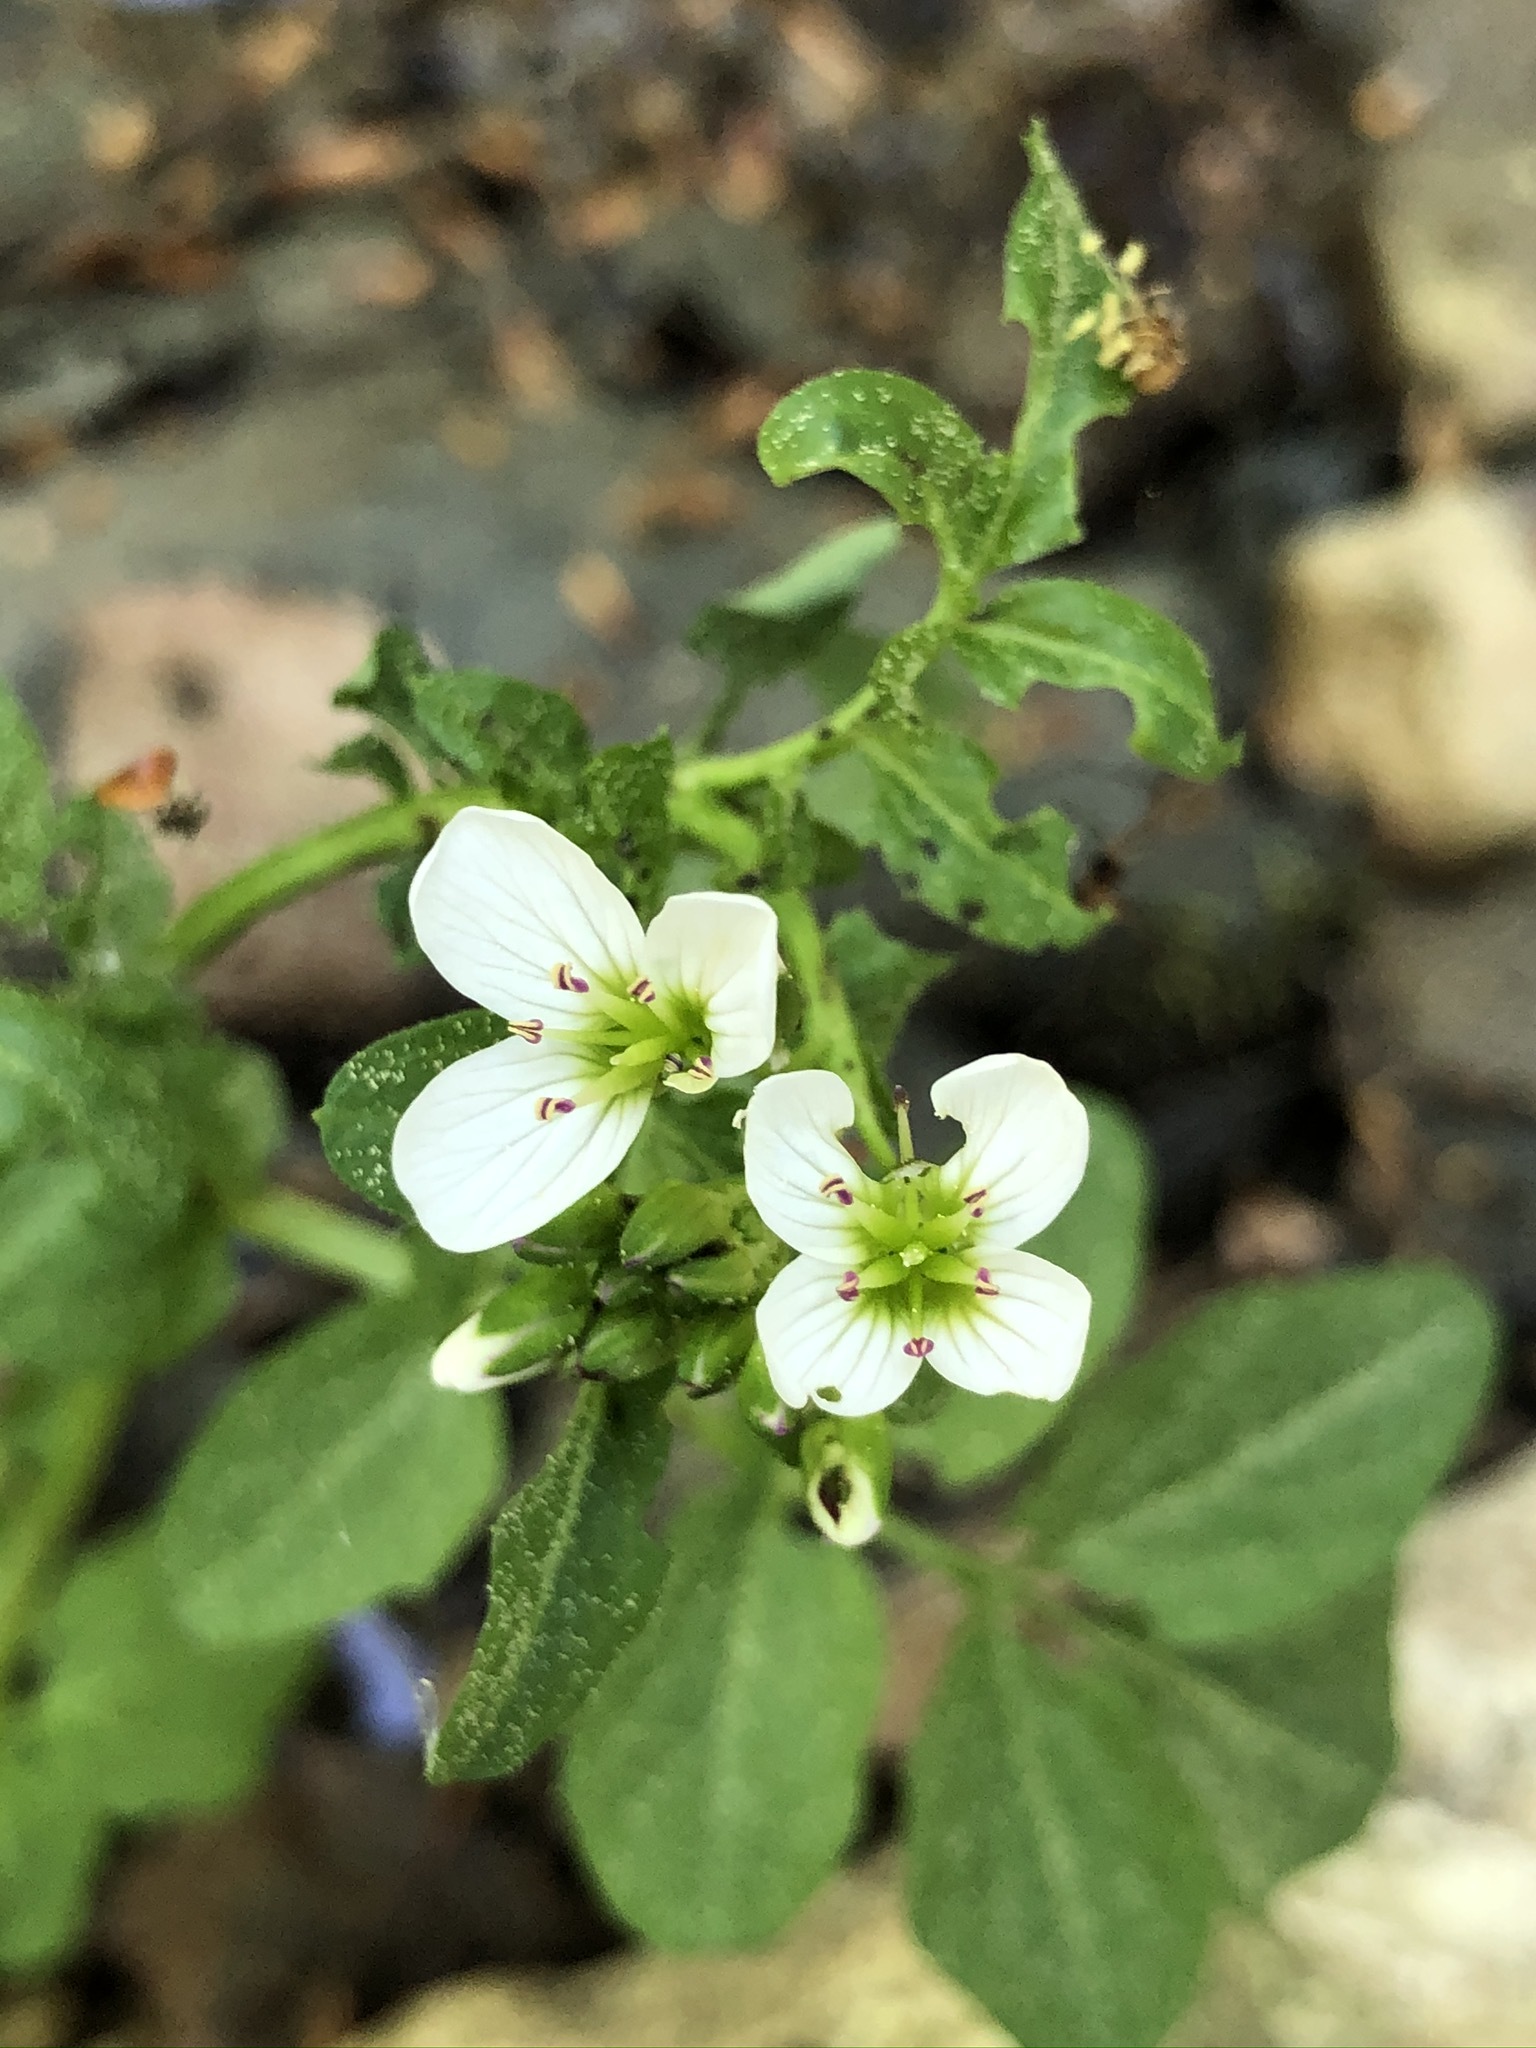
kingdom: Plantae
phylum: Tracheophyta
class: Magnoliopsida
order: Brassicales
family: Brassicaceae
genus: Cardamine
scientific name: Cardamine amara
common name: Large bitter-cress
